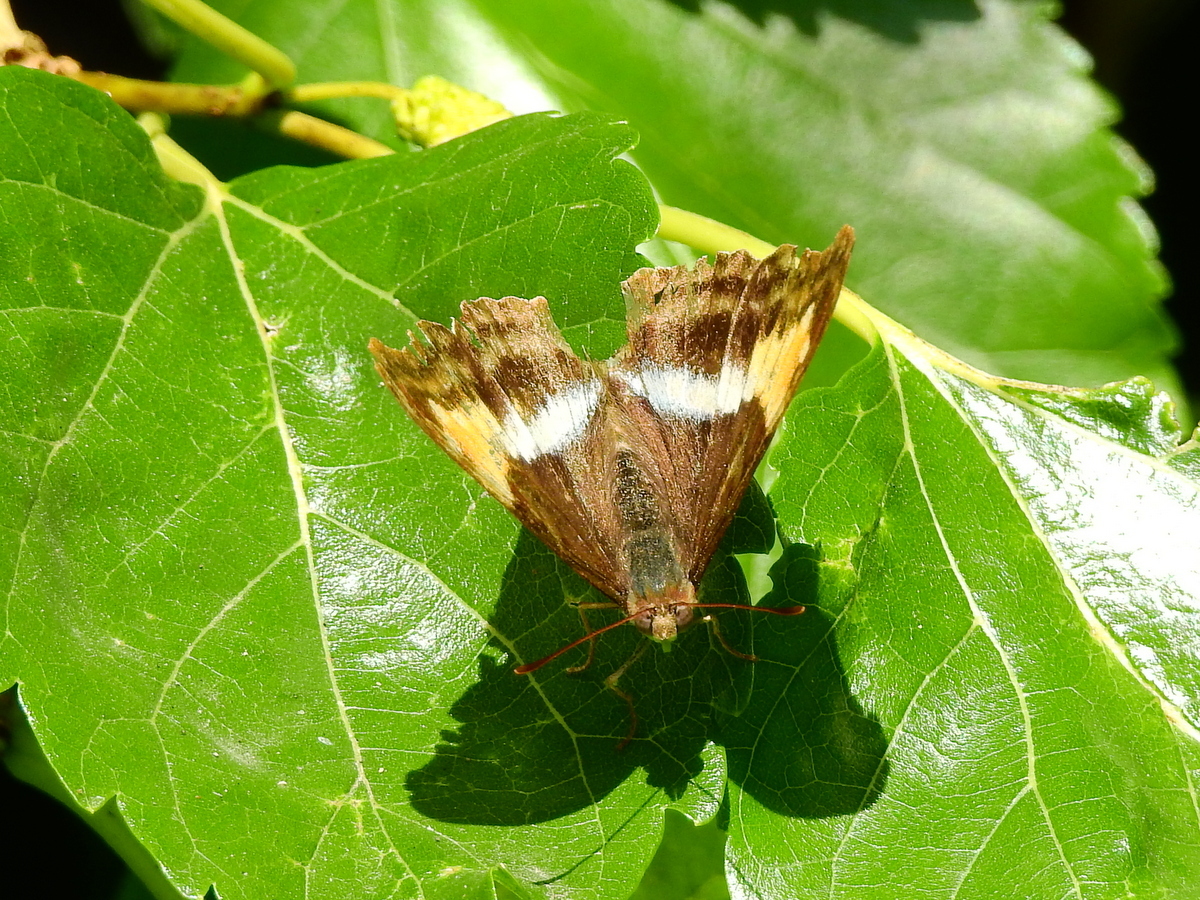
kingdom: Animalia
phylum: Arthropoda
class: Insecta
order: Lepidoptera
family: Nymphalidae
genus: Doxocopa
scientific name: Doxocopa laurentia
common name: Turquoise emperor
